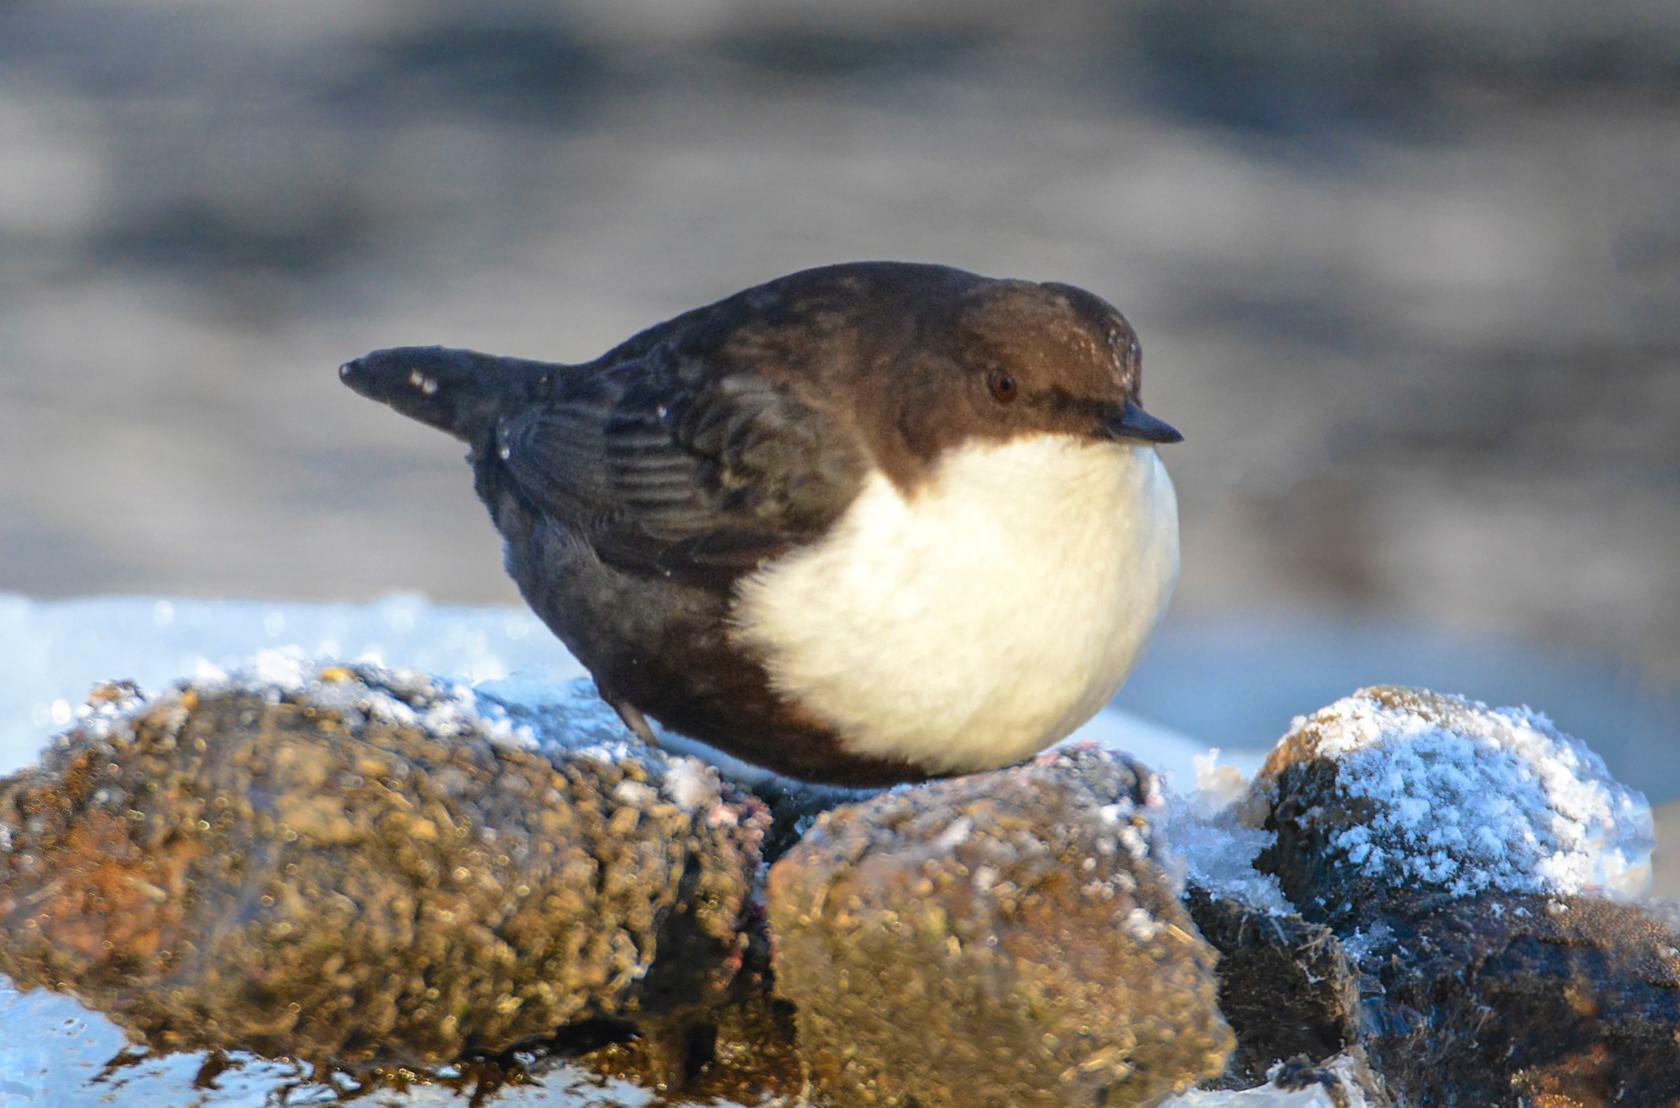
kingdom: Animalia
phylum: Chordata
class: Aves
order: Passeriformes
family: Cinclidae
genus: Cinclus
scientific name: Cinclus cinclus
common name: White-throated dipper
